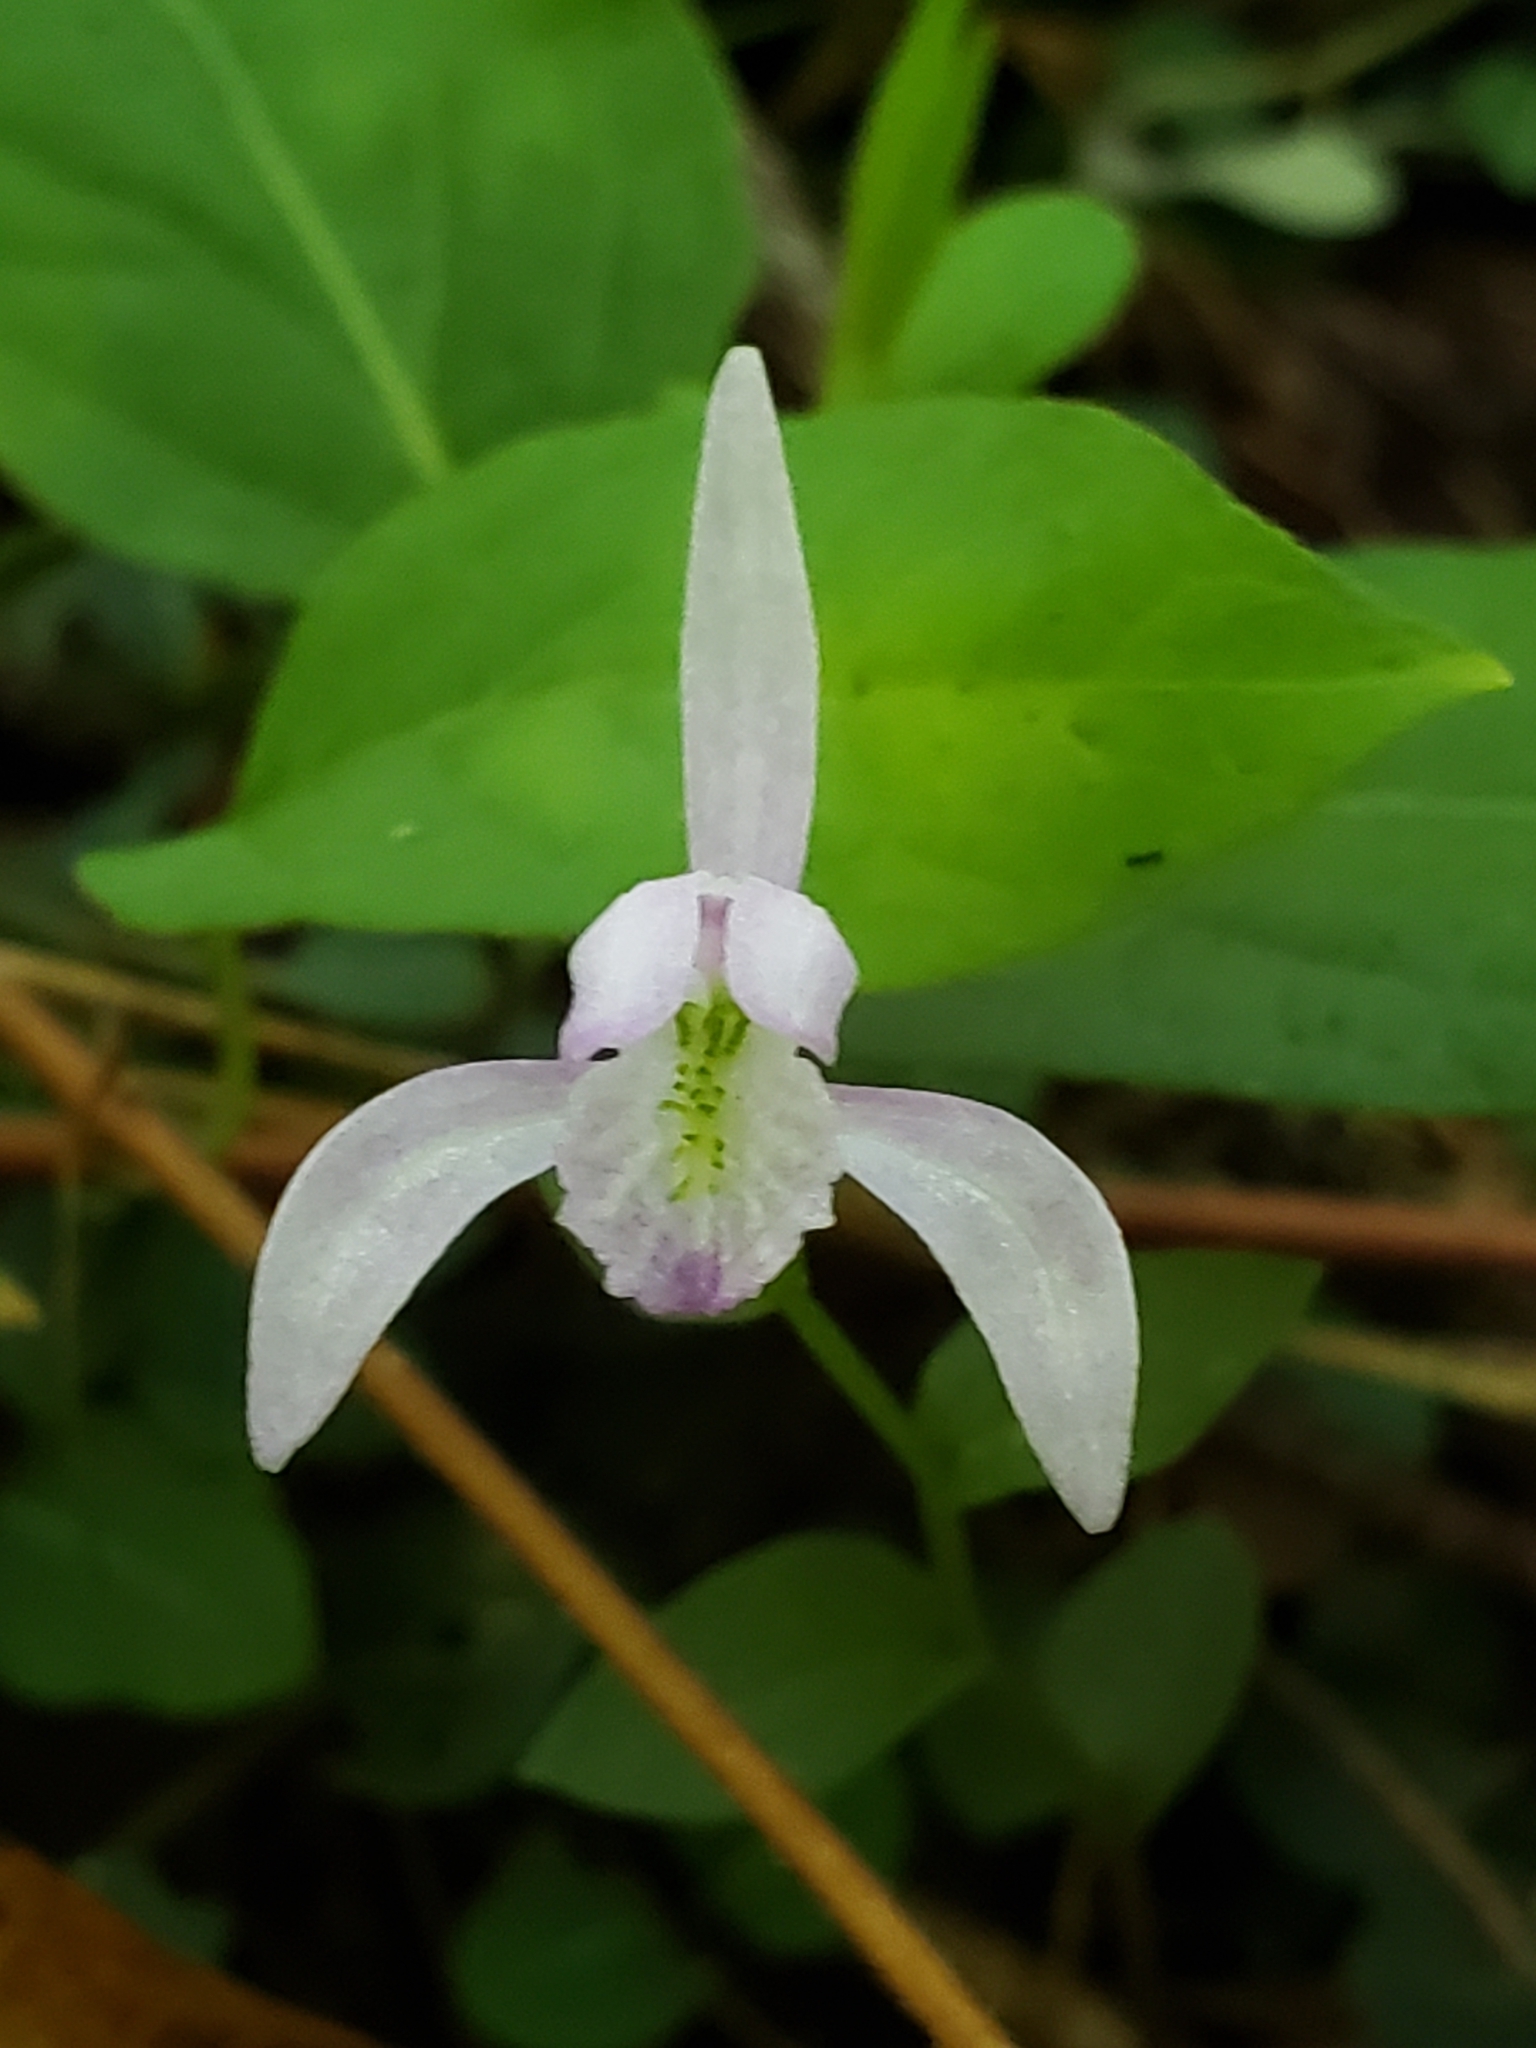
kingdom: Plantae
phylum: Tracheophyta
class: Liliopsida
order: Asparagales
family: Orchidaceae
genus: Triphora
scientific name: Triphora trianthophoros
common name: Three birds orchid
